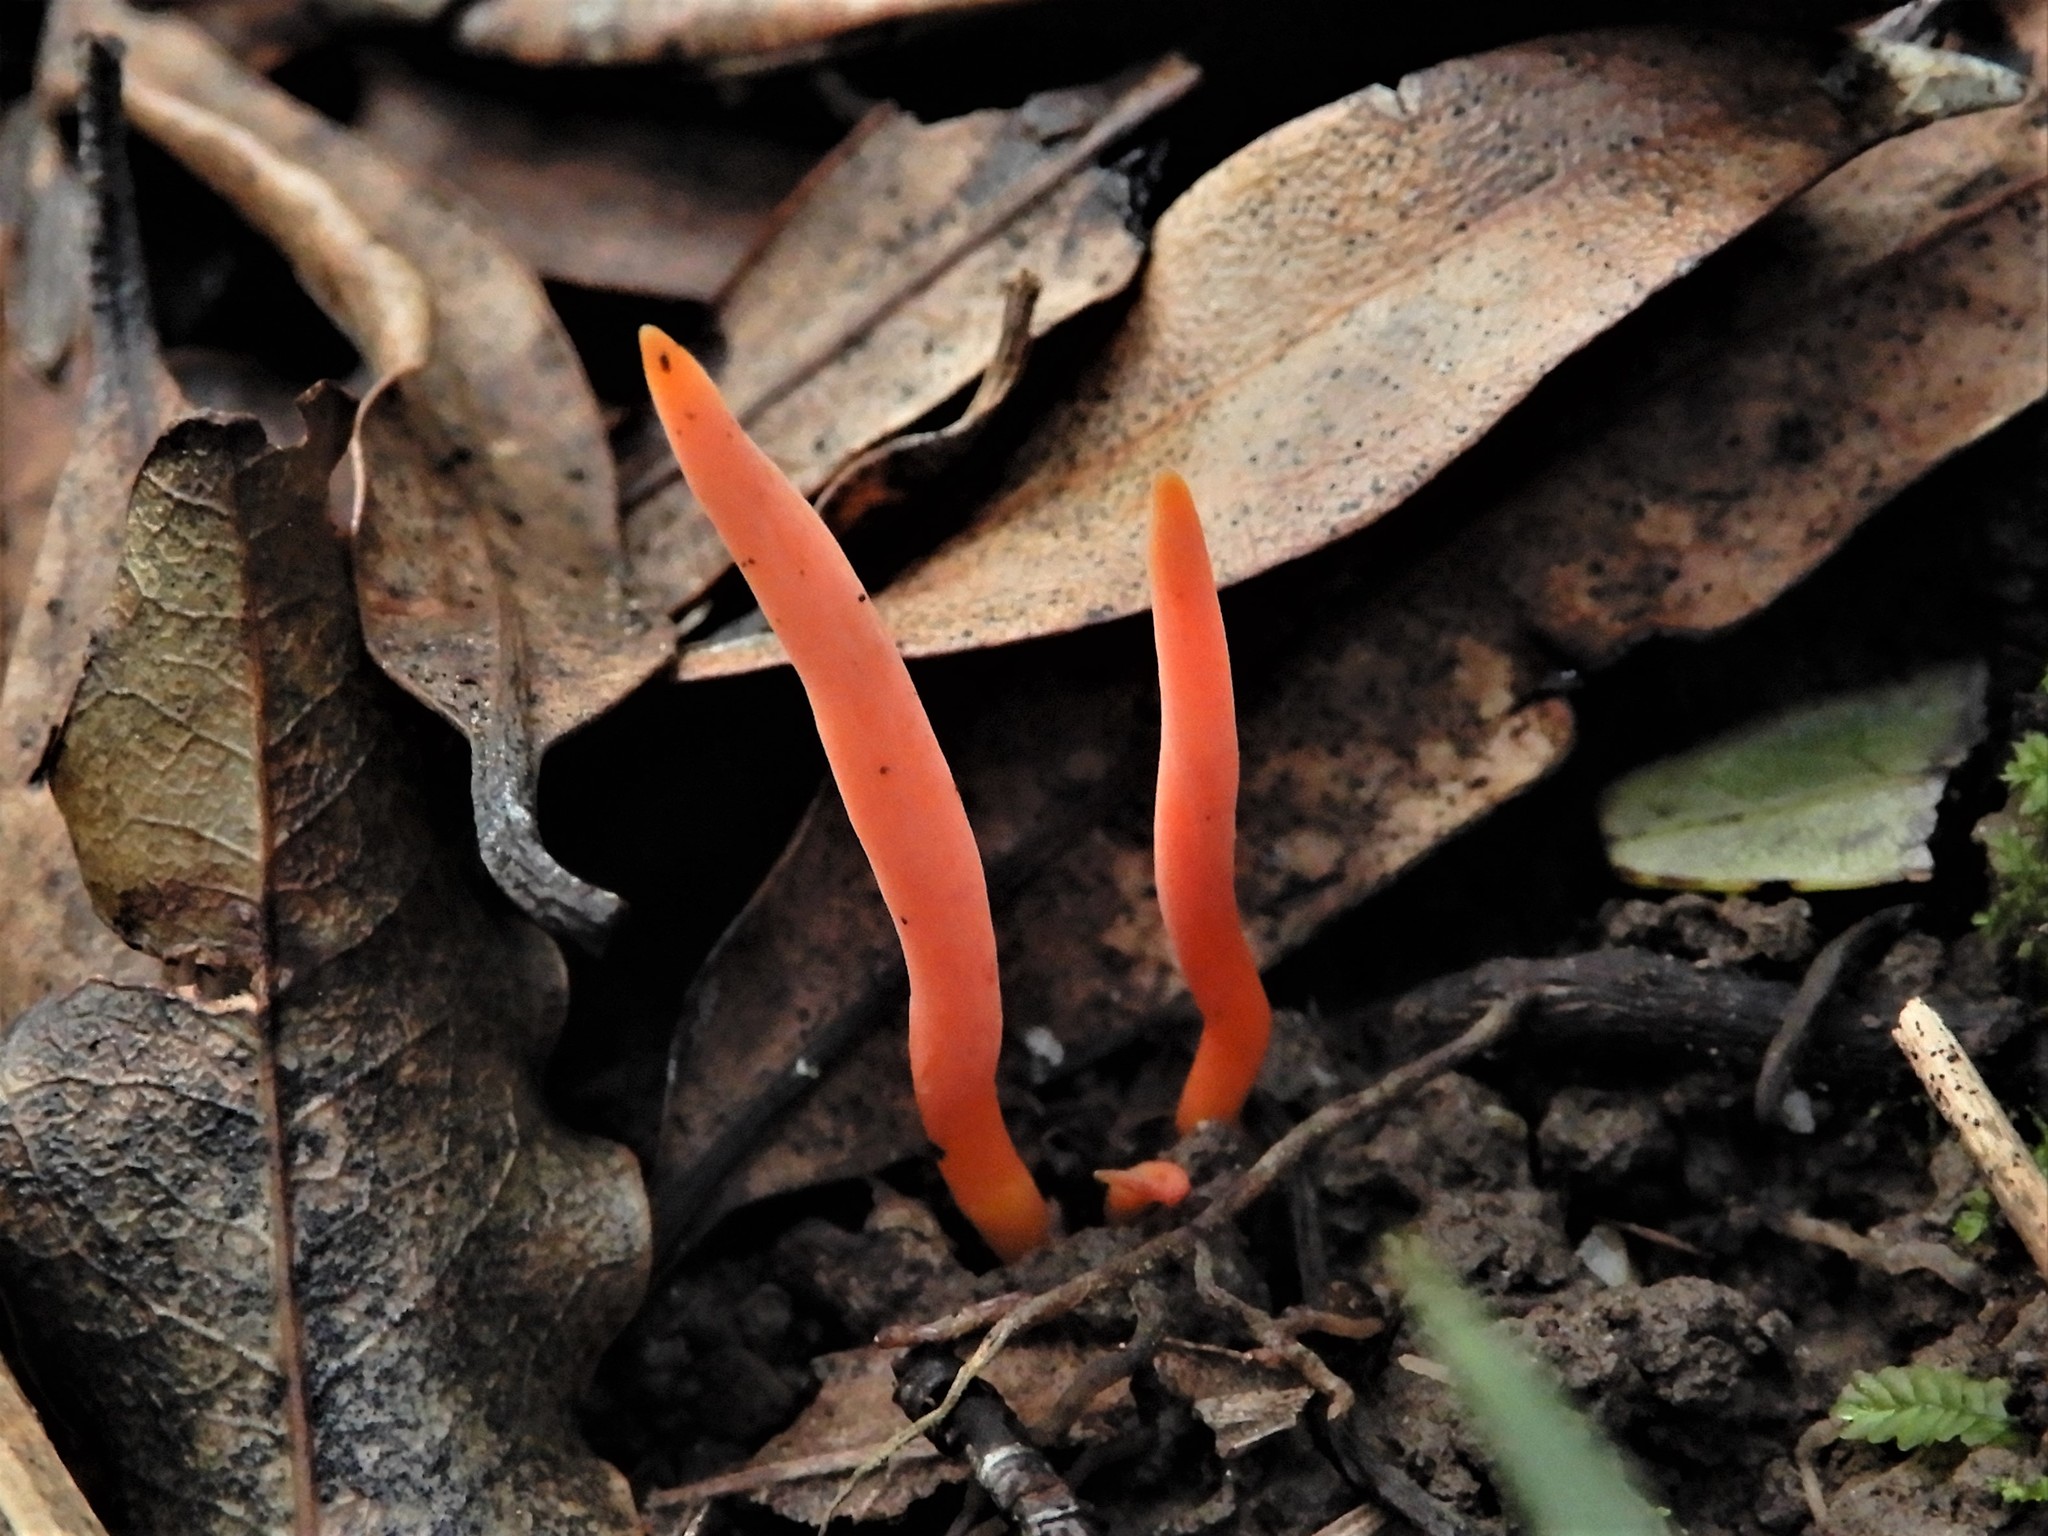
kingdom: Fungi
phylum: Basidiomycota
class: Agaricomycetes
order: Agaricales
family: Clavariaceae
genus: Clavulinopsis
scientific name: Clavulinopsis
